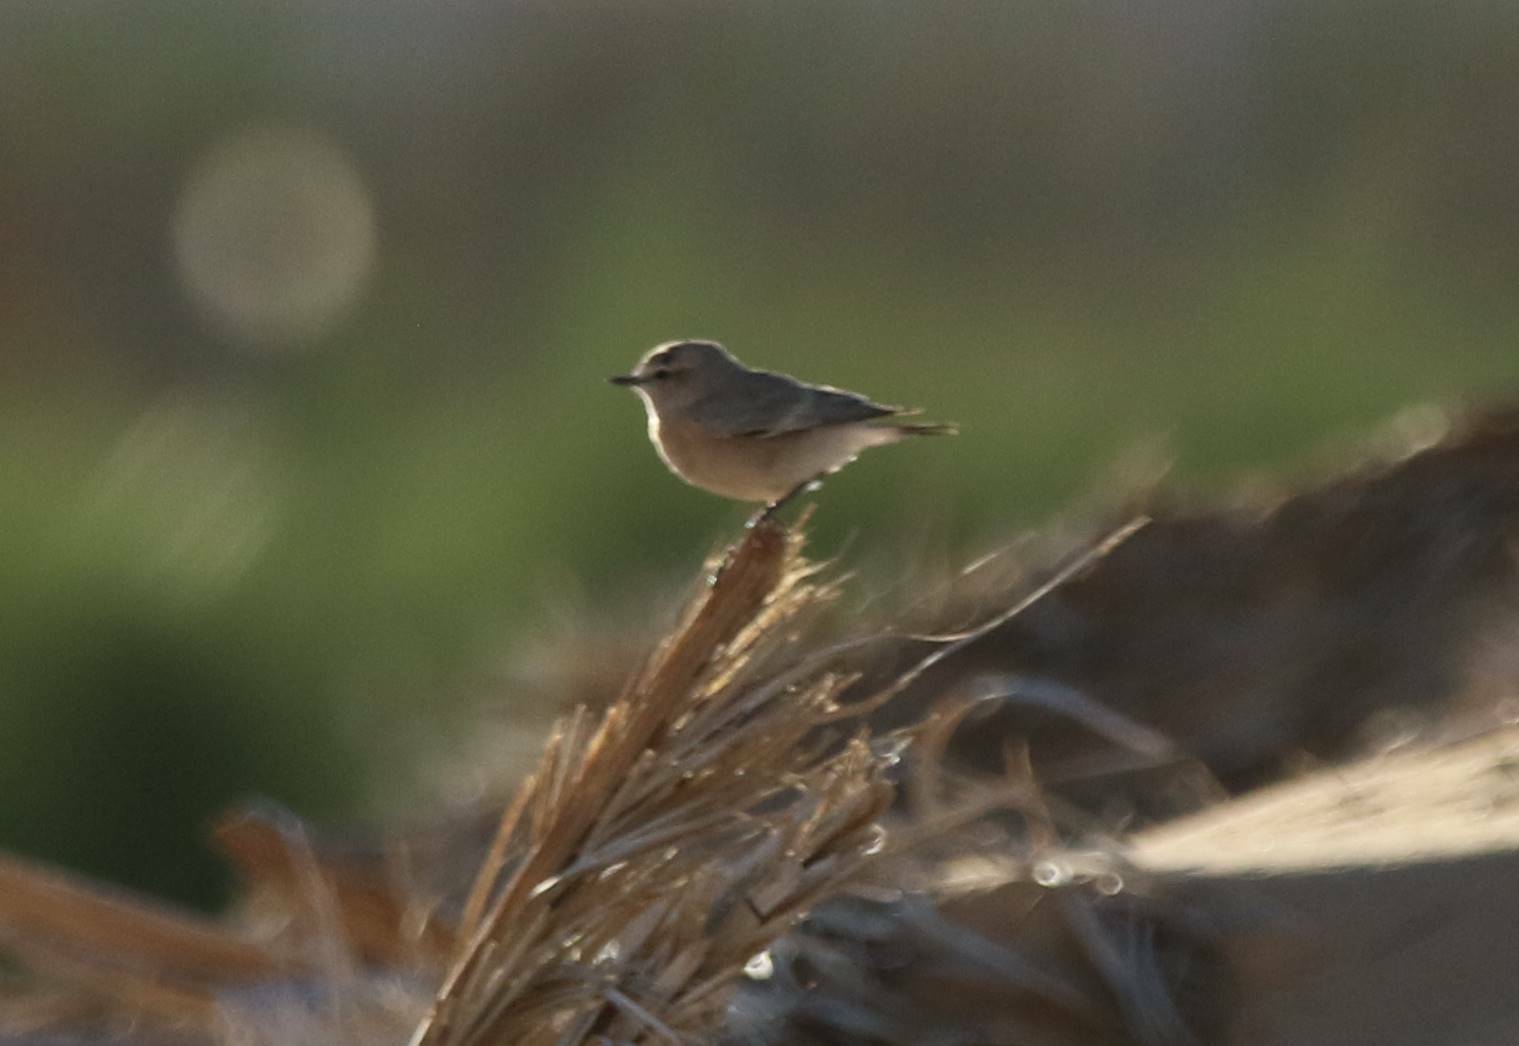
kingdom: Animalia
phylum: Chordata
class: Aves
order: Passeriformes
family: Muscicapidae
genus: Oenanthe
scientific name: Oenanthe isabellina
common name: Isabelline wheatear
